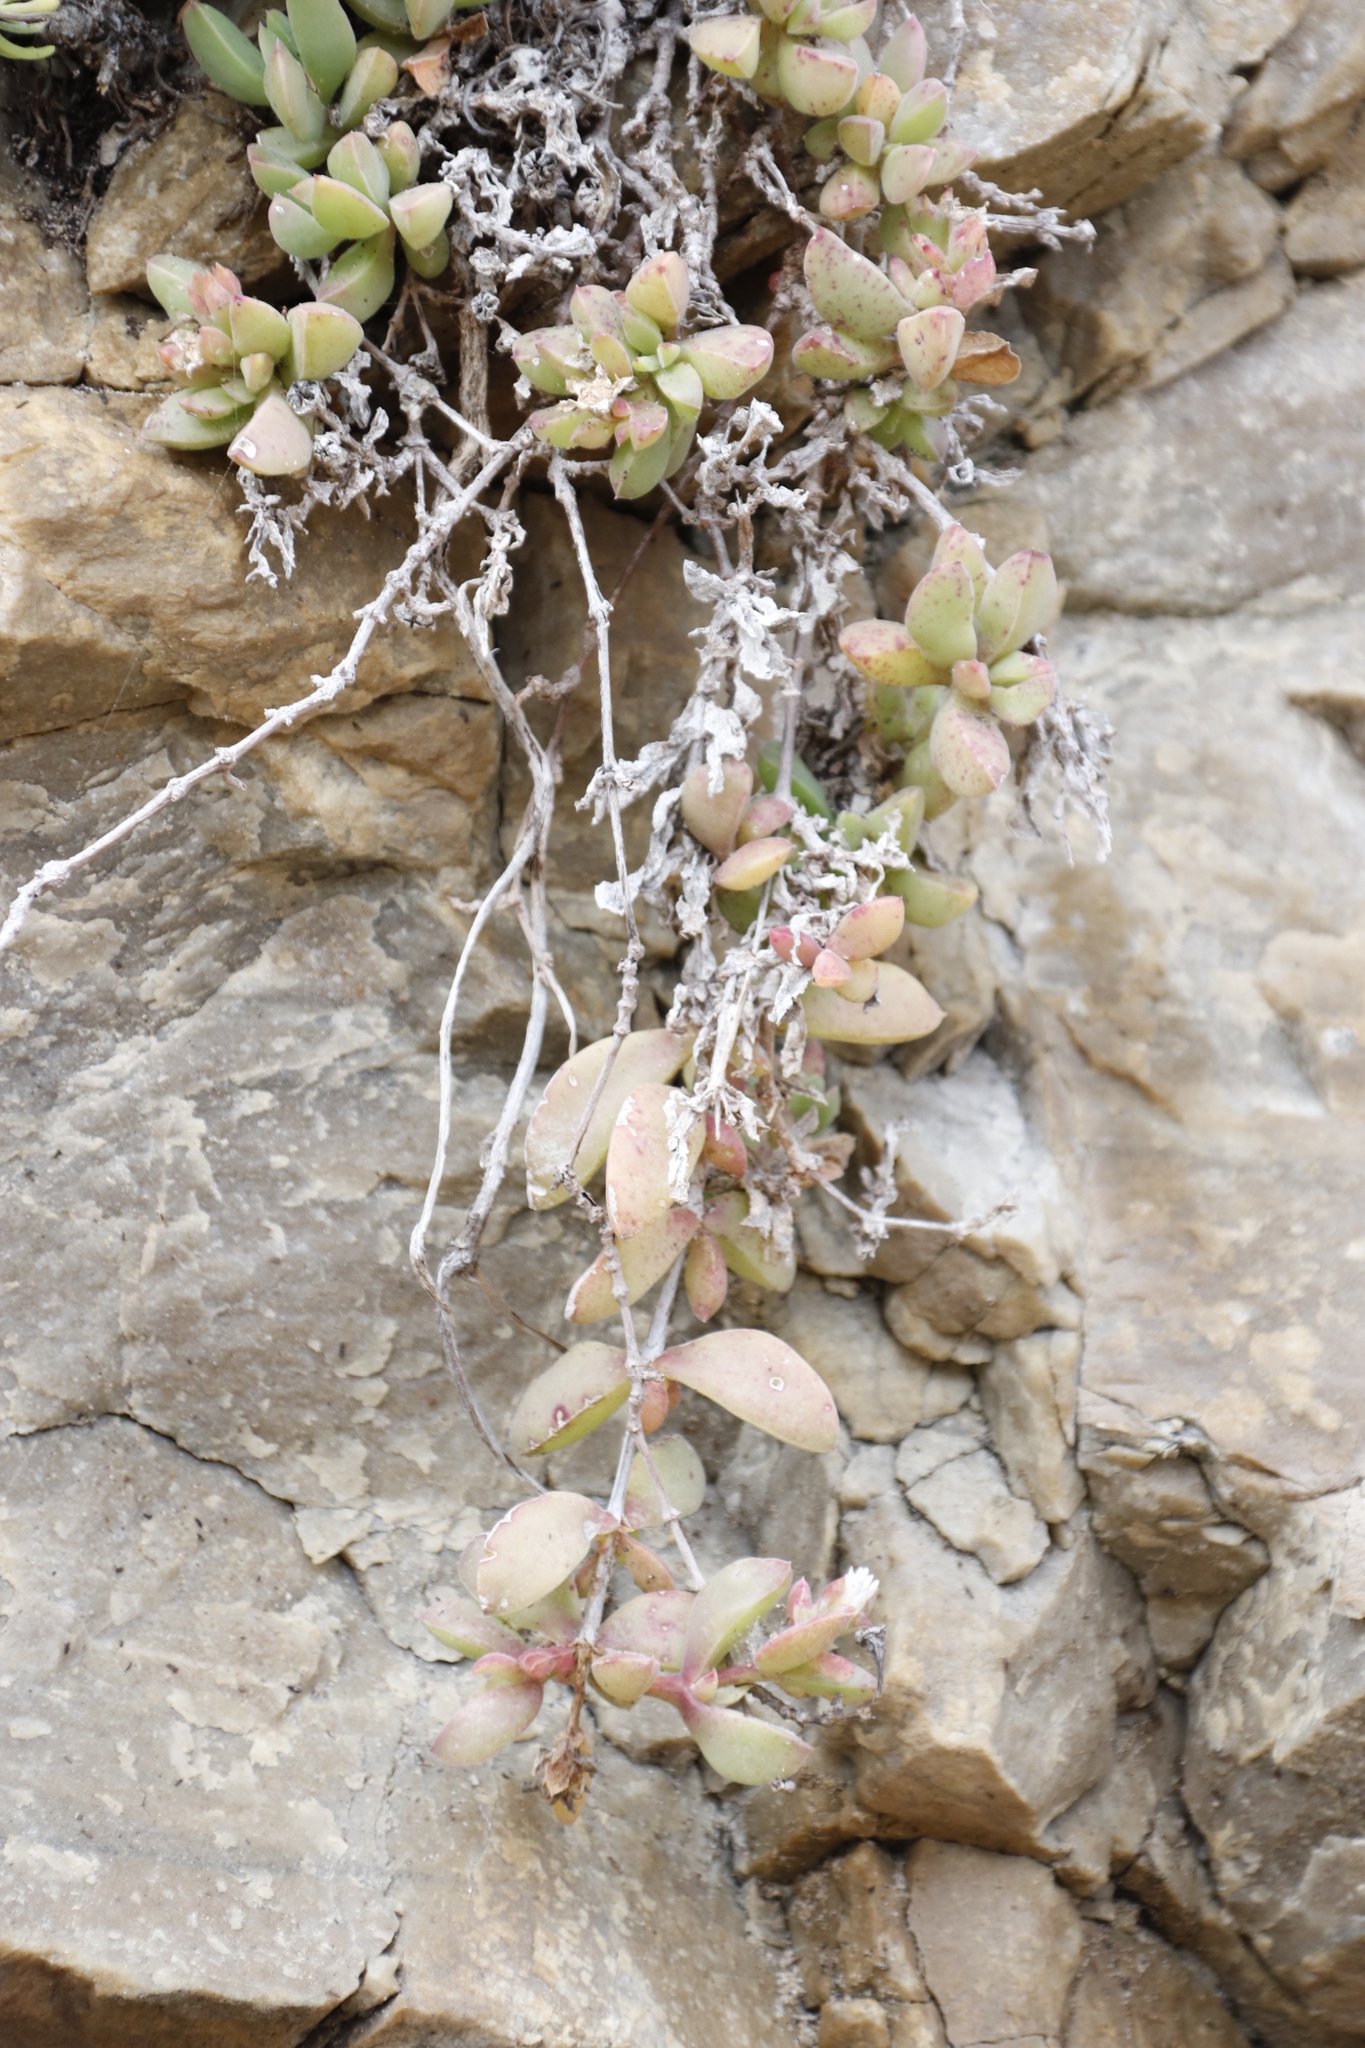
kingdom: Plantae
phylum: Tracheophyta
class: Magnoliopsida
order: Caryophyllales
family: Aizoaceae
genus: Delosperma
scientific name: Delosperma litorale
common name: Seaside delosperma
